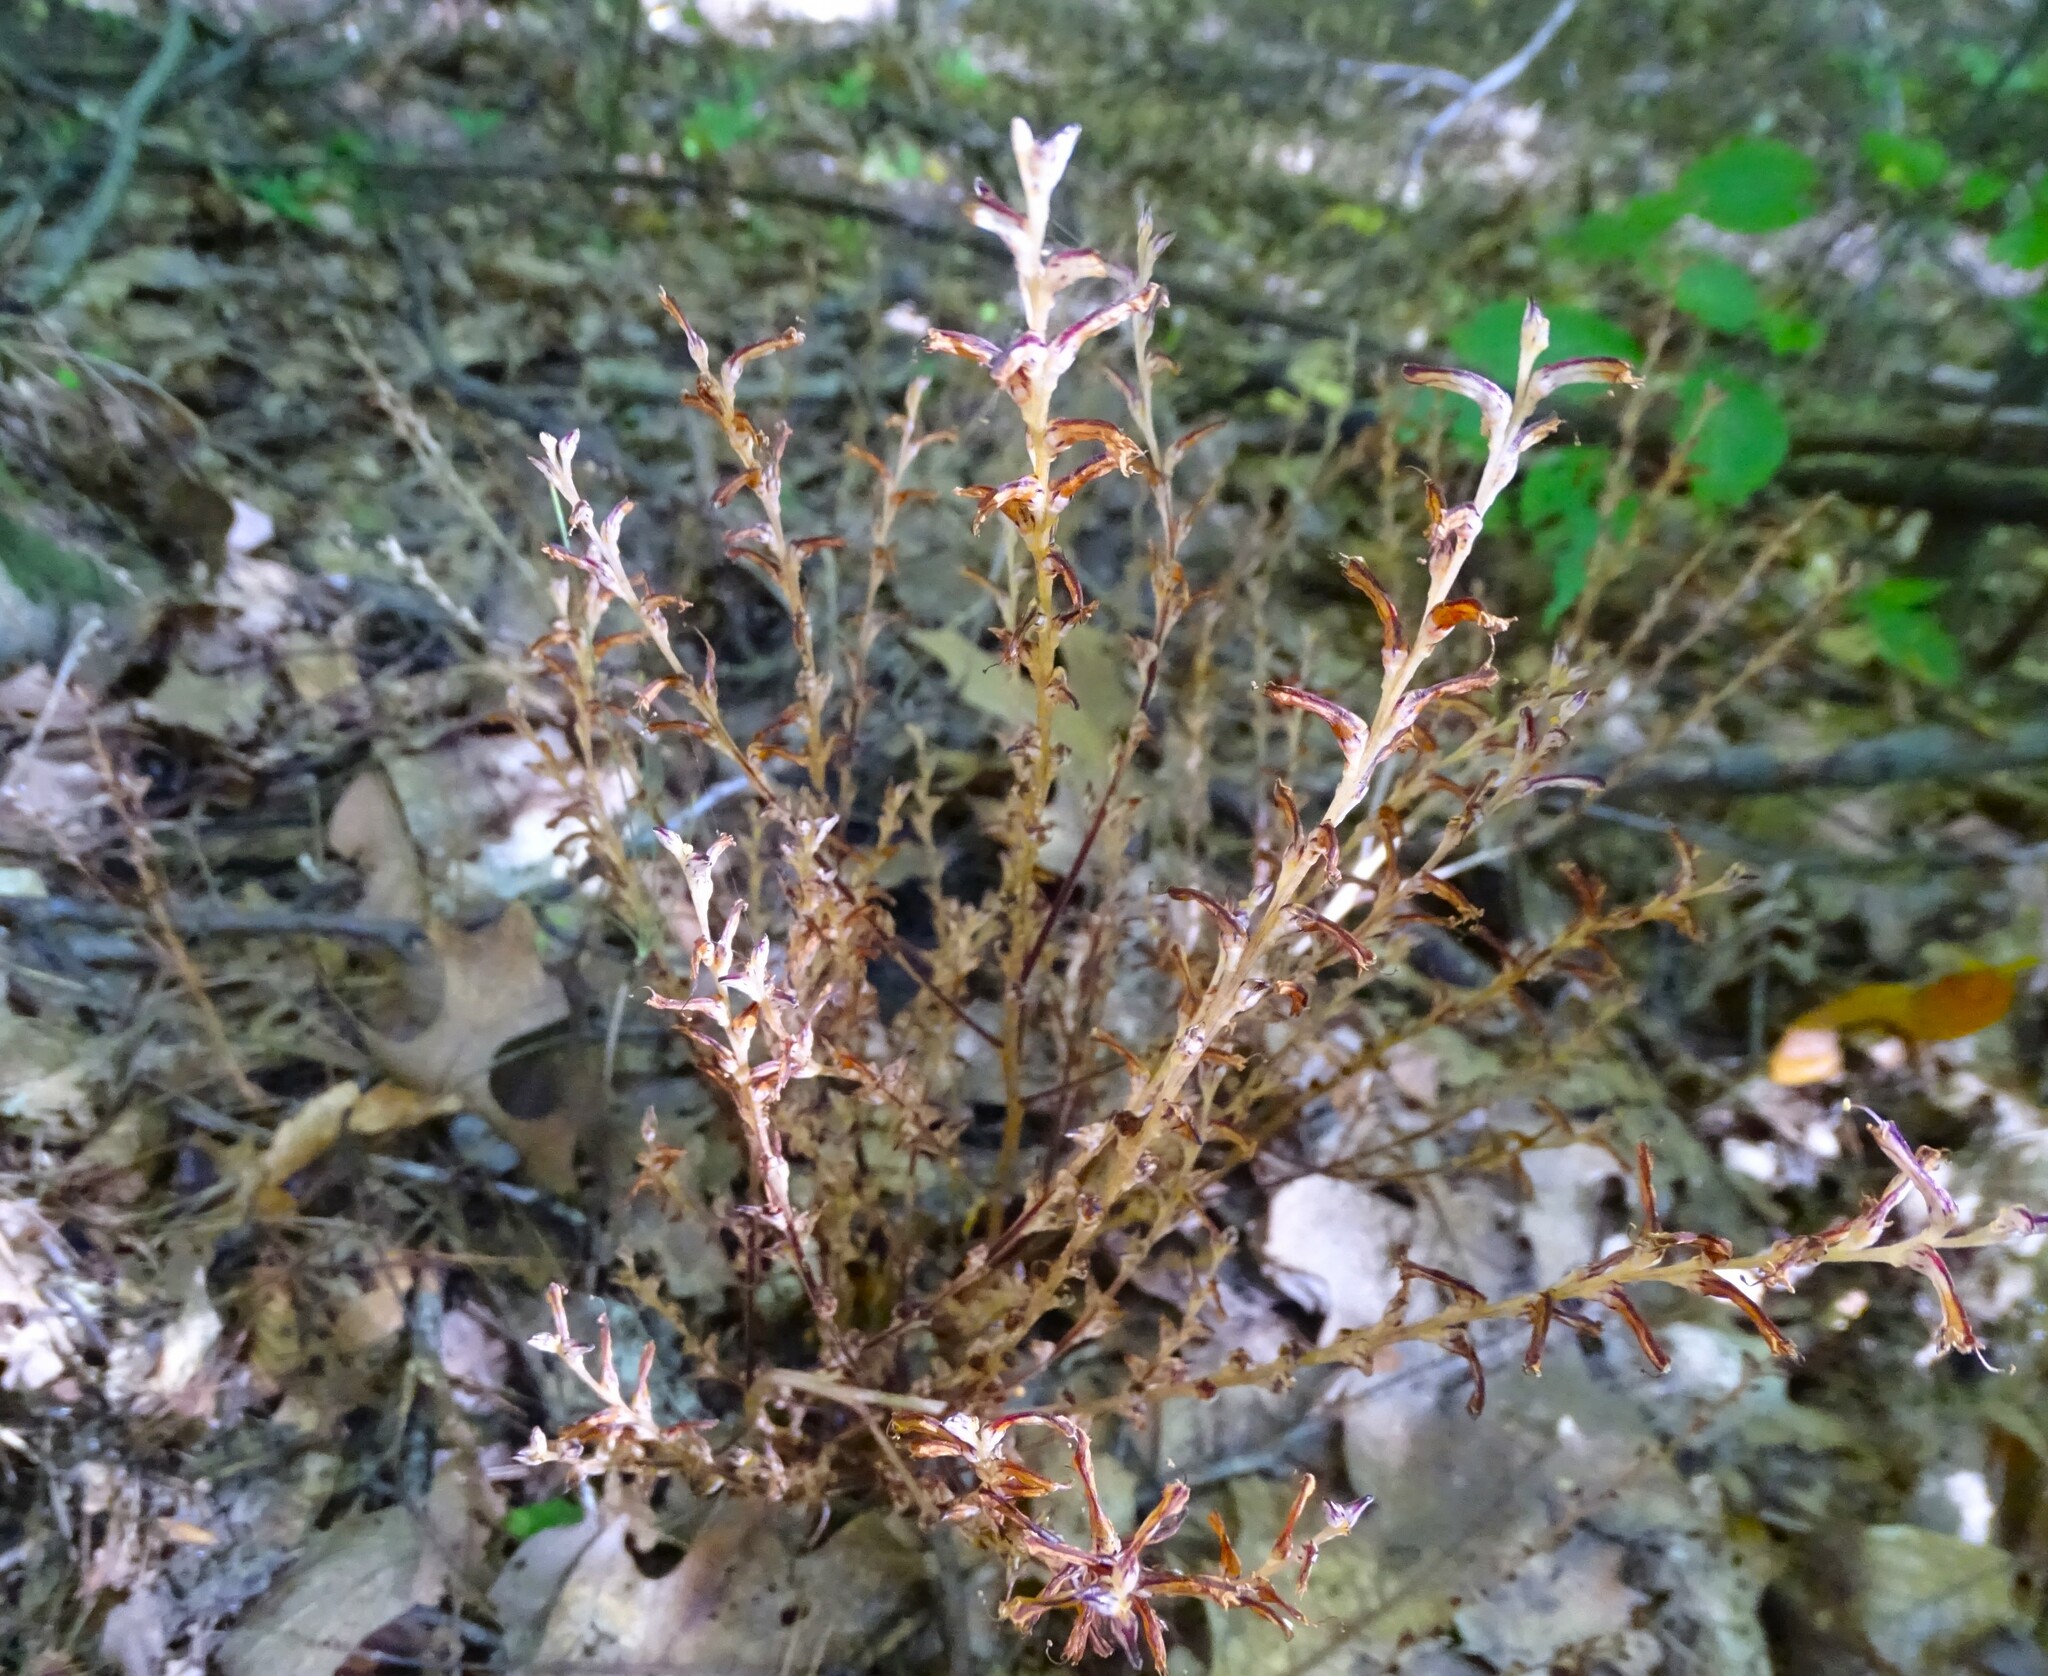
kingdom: Plantae
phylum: Tracheophyta
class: Magnoliopsida
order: Lamiales
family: Orobanchaceae
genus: Epifagus
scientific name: Epifagus virginiana
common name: Beechdrops
